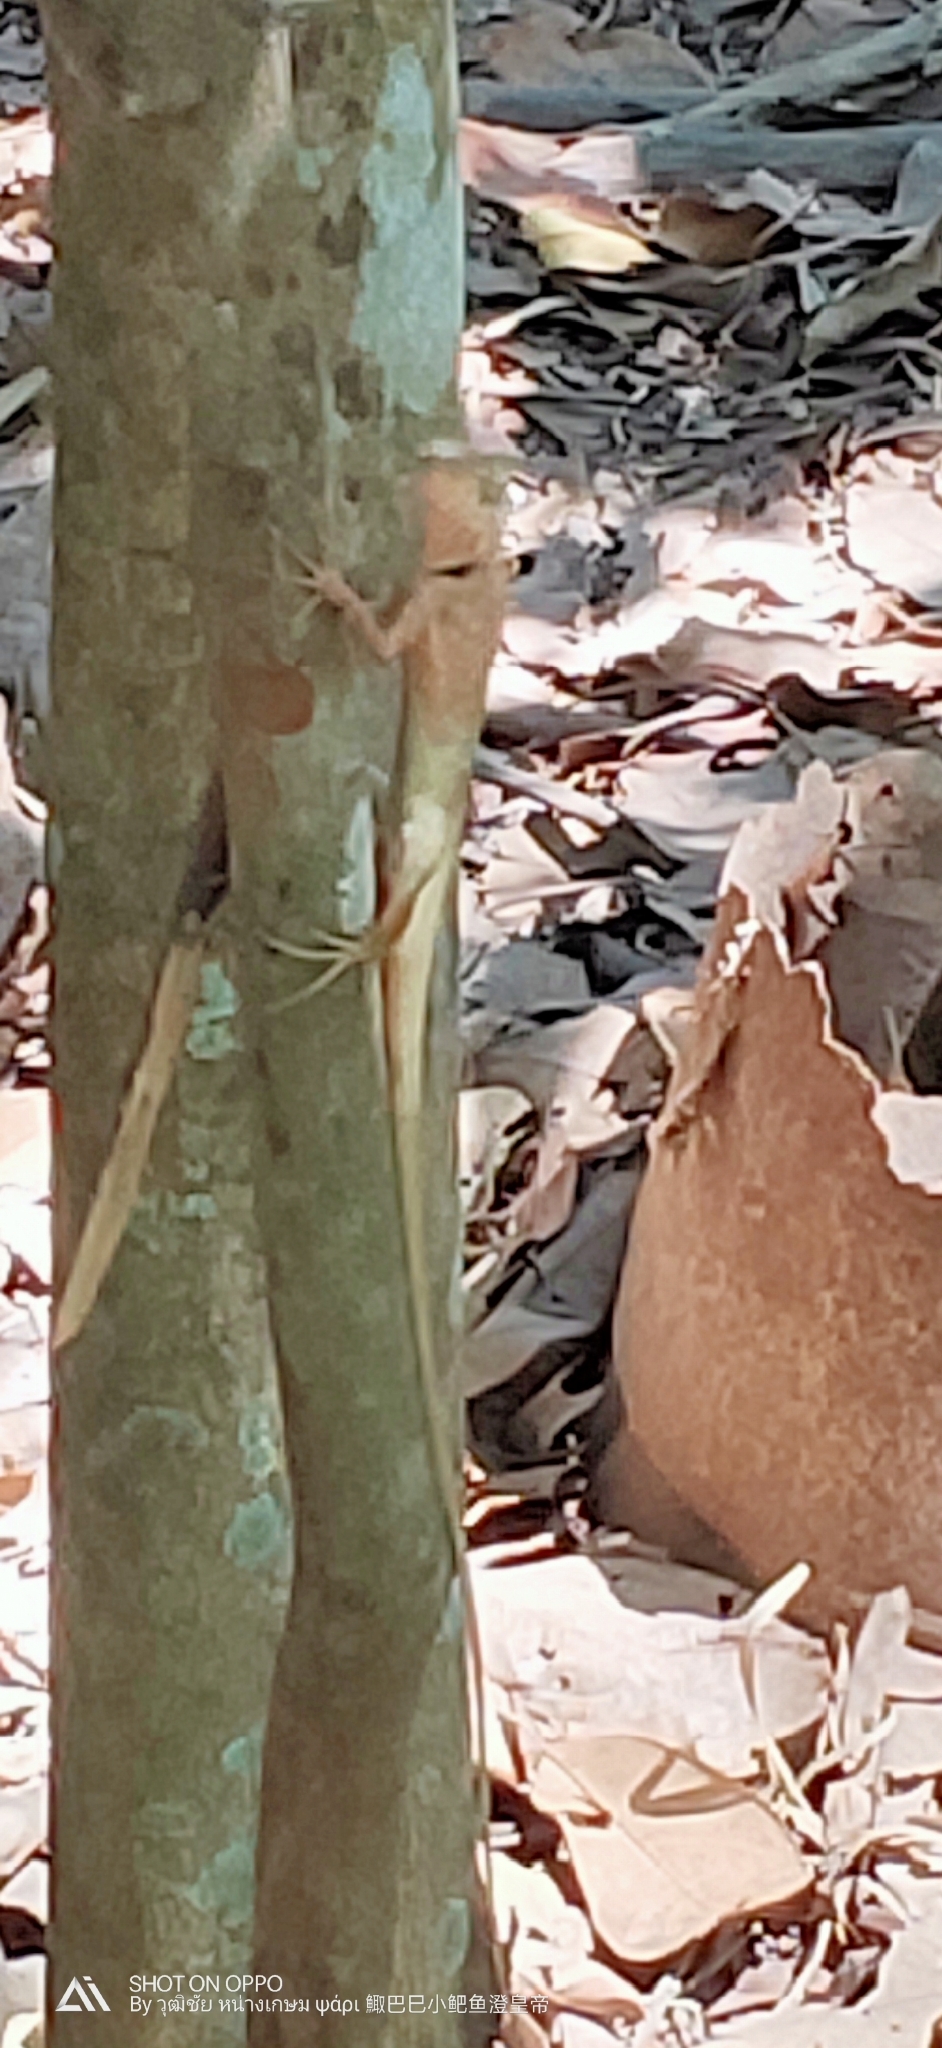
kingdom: Animalia
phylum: Chordata
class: Squamata
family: Agamidae
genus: Calotes
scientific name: Calotes versicolor
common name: Oriental garden lizard
